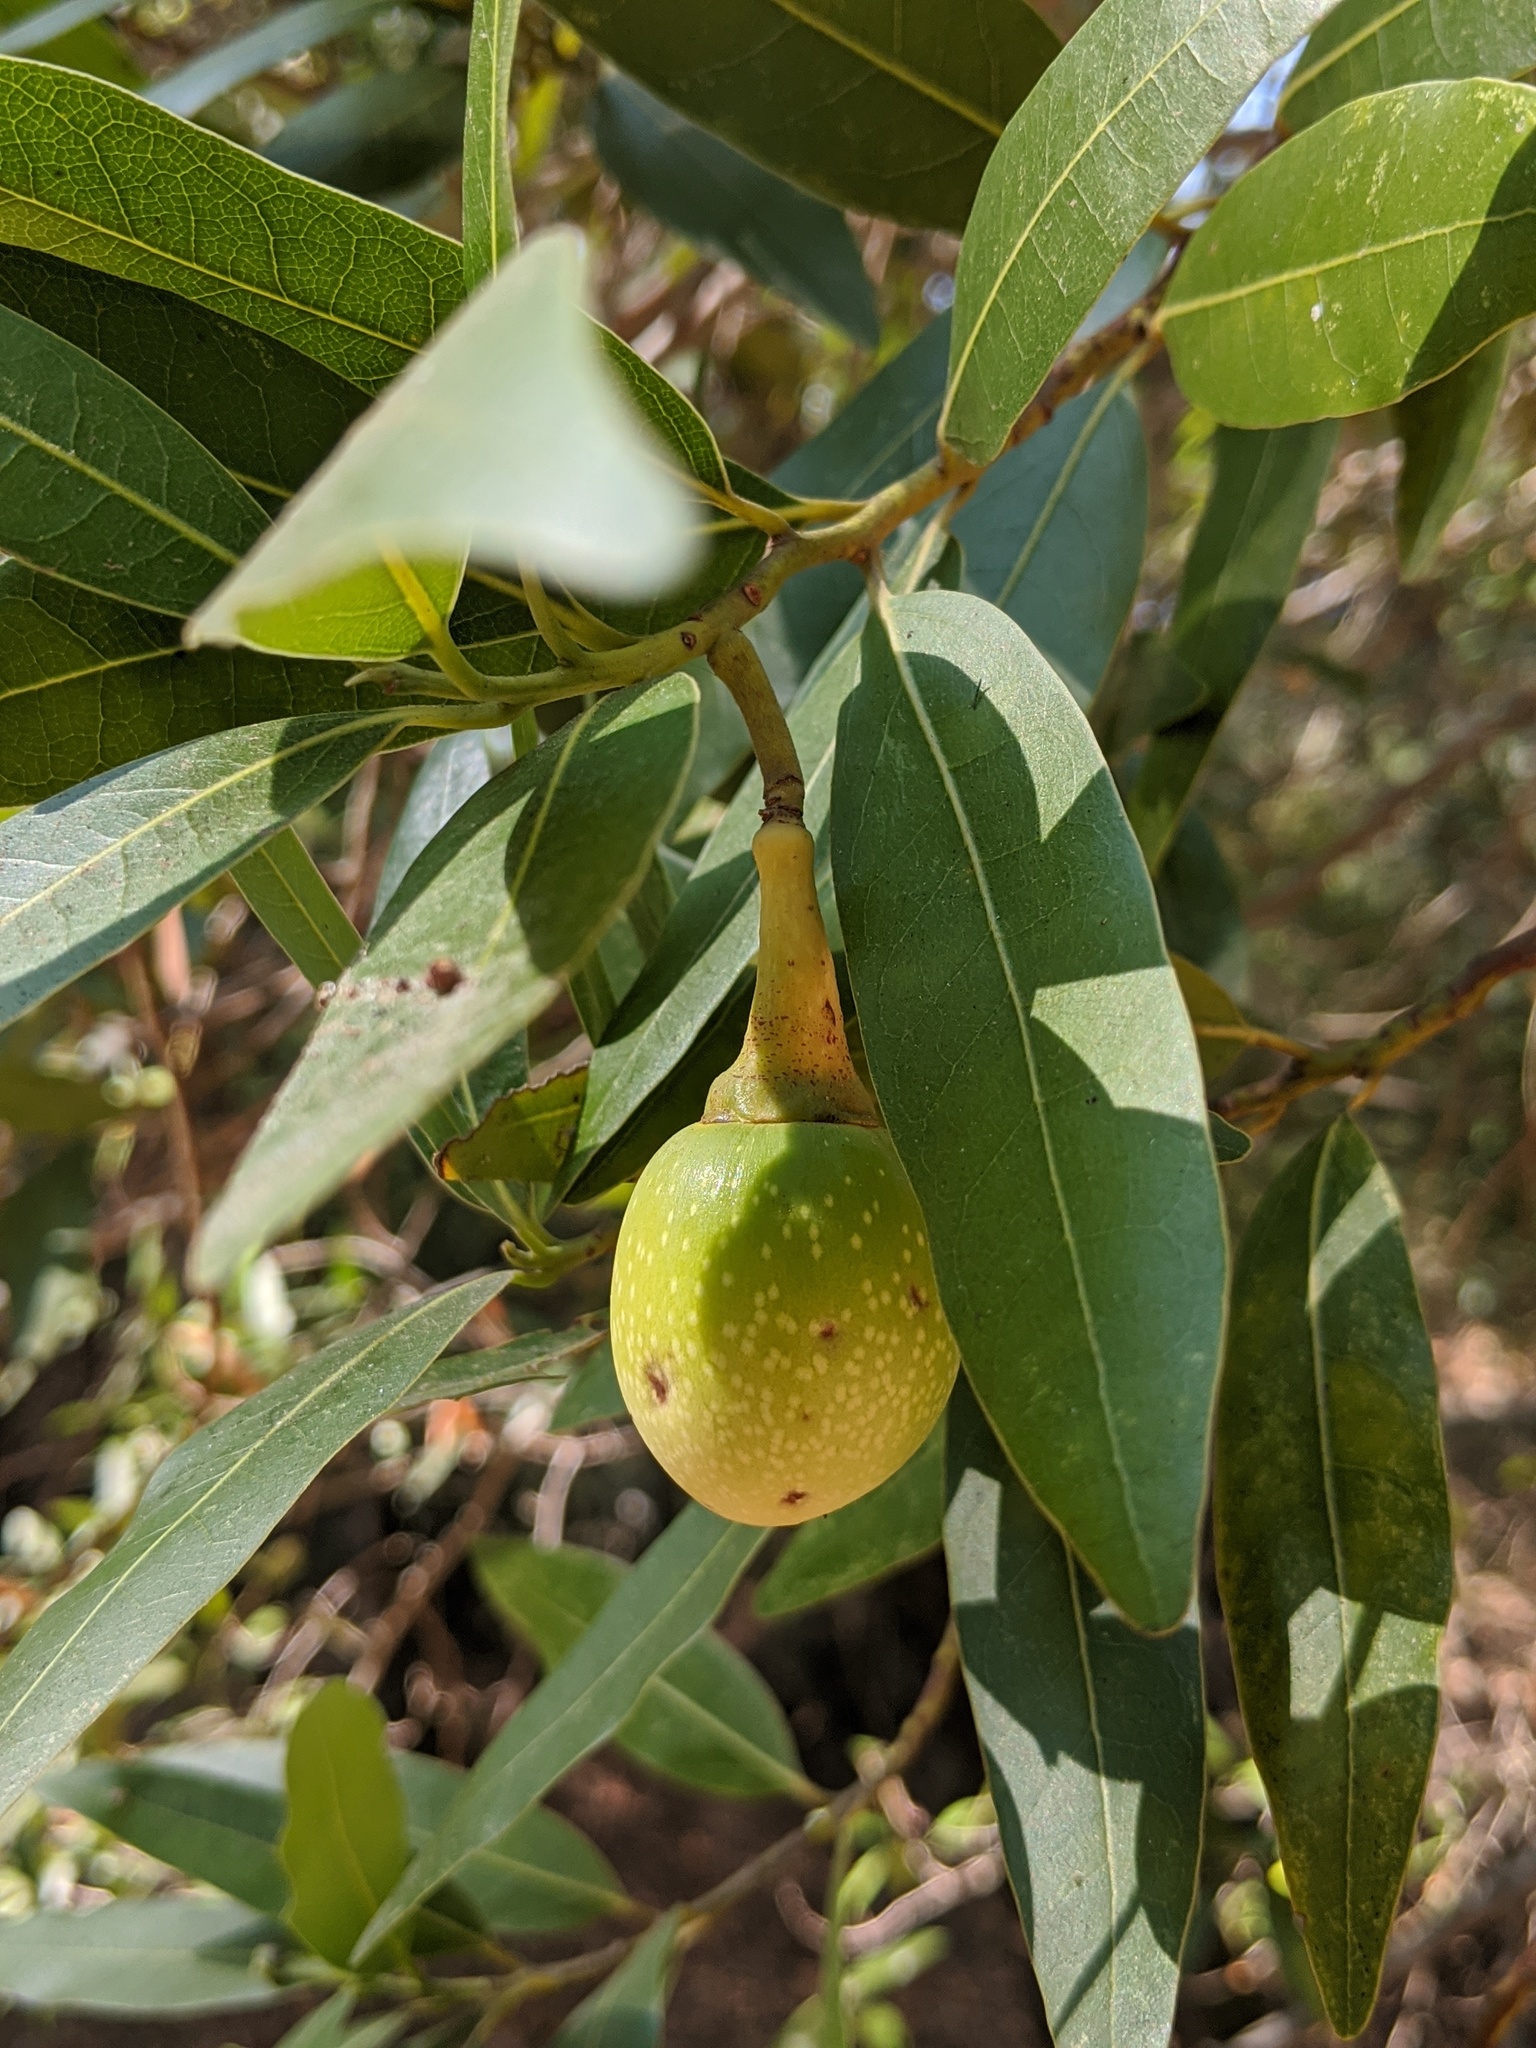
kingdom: Plantae
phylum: Tracheophyta
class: Magnoliopsida
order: Laurales
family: Lauraceae
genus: Umbellularia
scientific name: Umbellularia californica
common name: California bay
